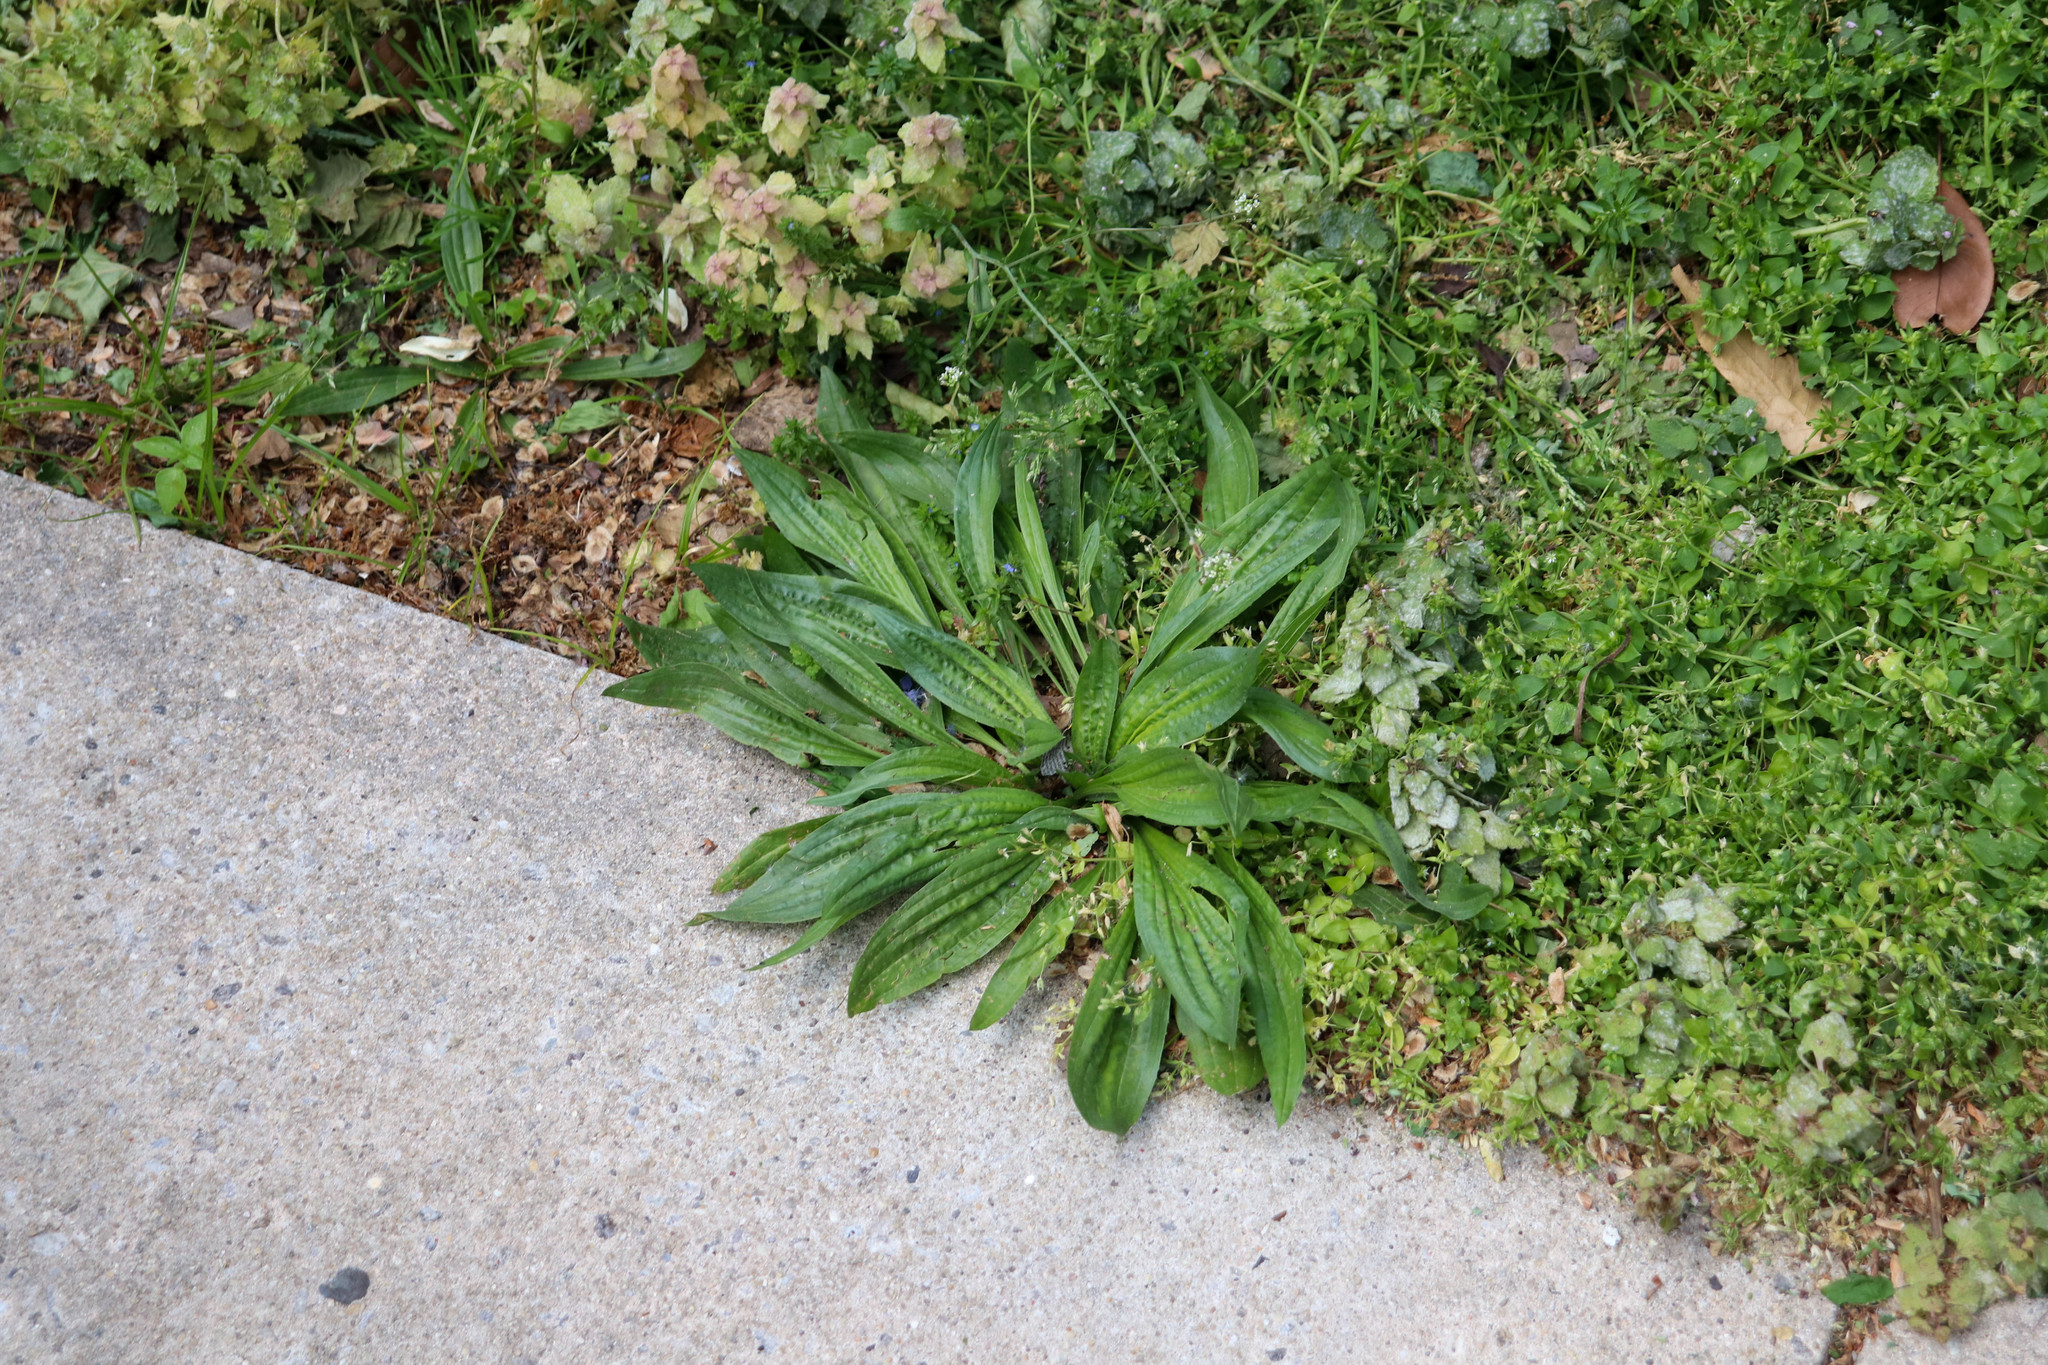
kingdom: Plantae
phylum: Tracheophyta
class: Magnoliopsida
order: Lamiales
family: Plantaginaceae
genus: Plantago
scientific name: Plantago lanceolata
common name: Ribwort plantain
